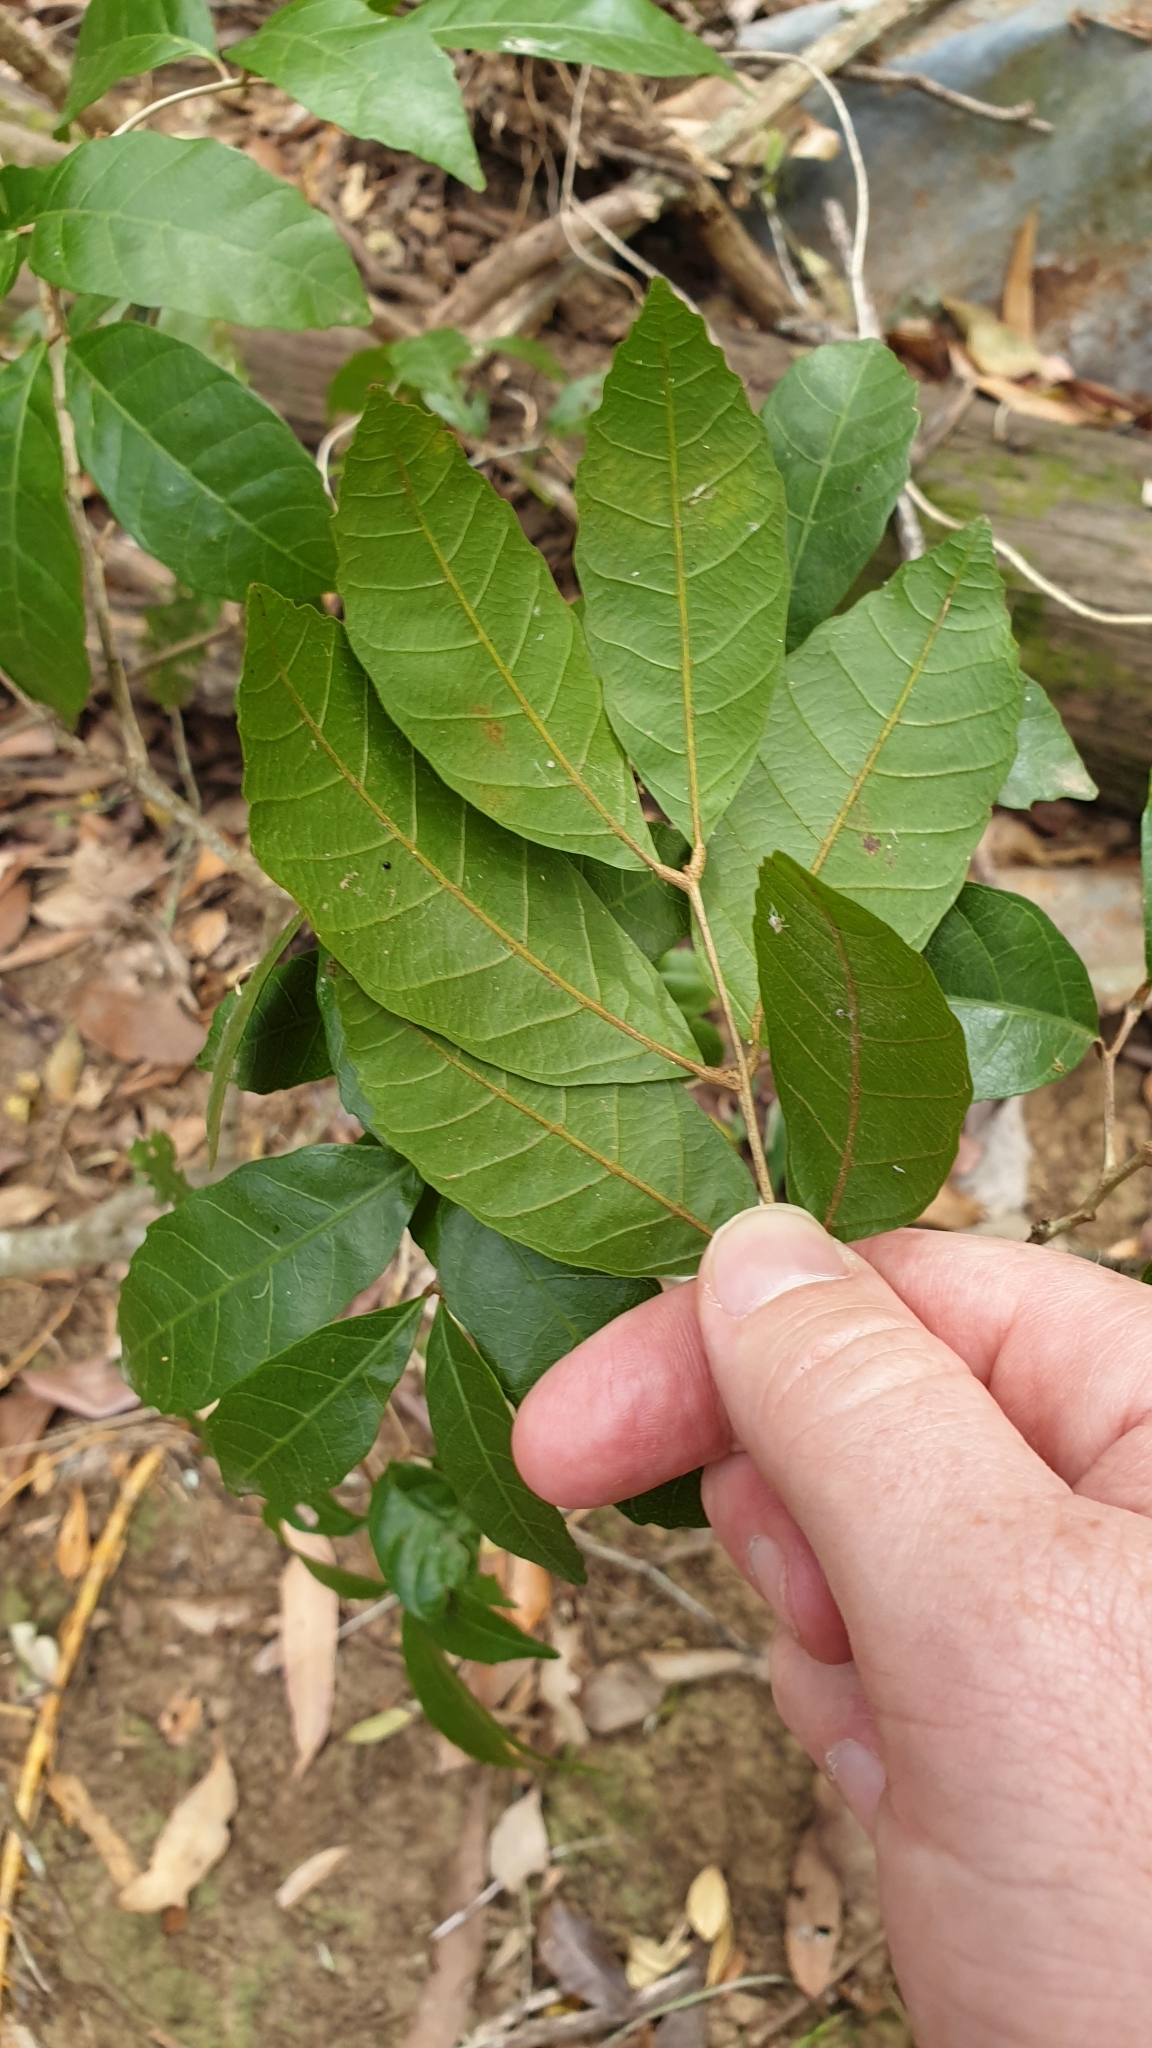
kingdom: Plantae
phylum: Tracheophyta
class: Magnoliopsida
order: Sapindales
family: Sapindaceae
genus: Arytera
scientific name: Arytera foveolata
